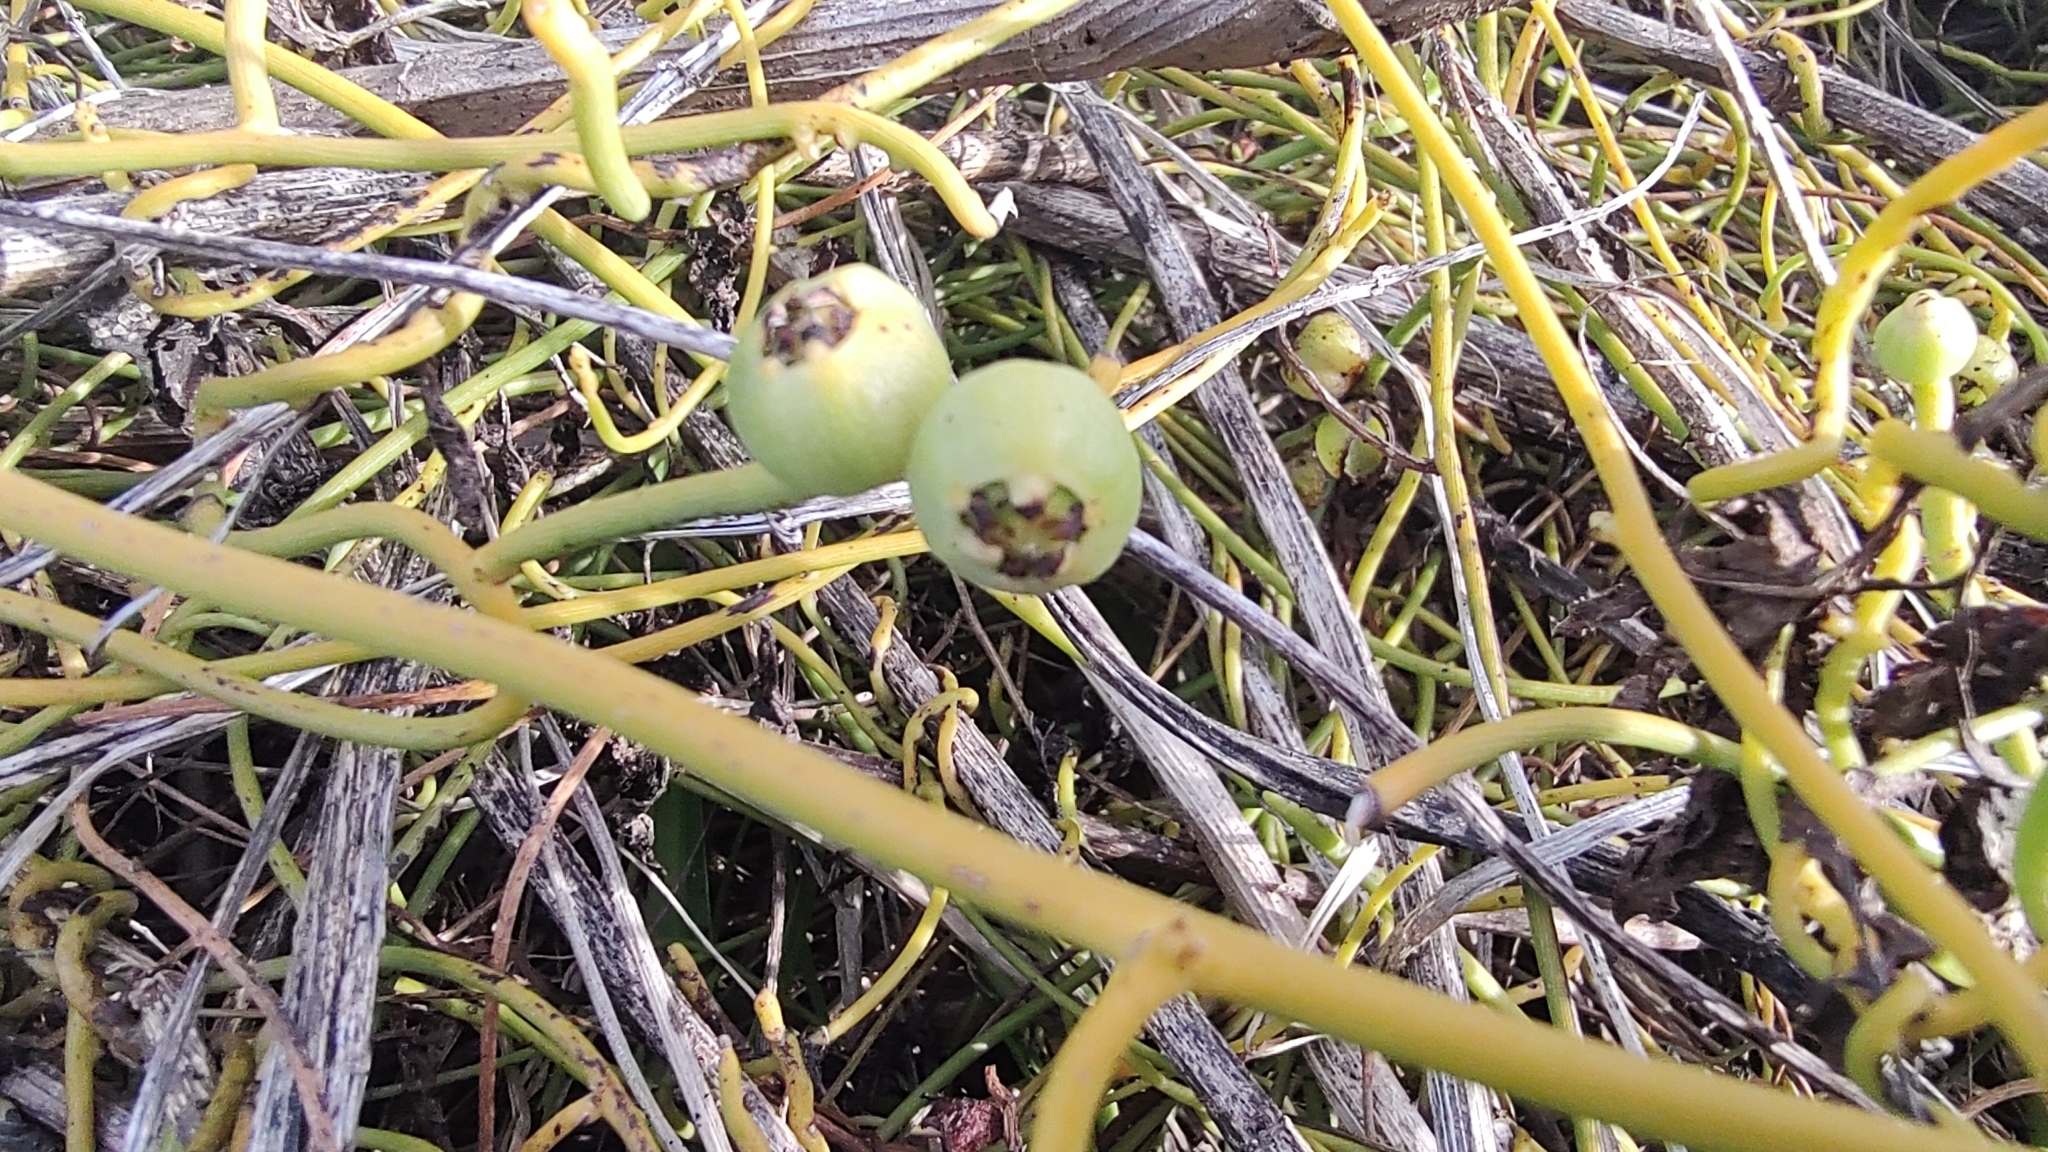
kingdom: Plantae
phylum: Tracheophyta
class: Magnoliopsida
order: Laurales
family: Lauraceae
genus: Cassytha
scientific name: Cassytha filiformis
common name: Dodder-laurel
